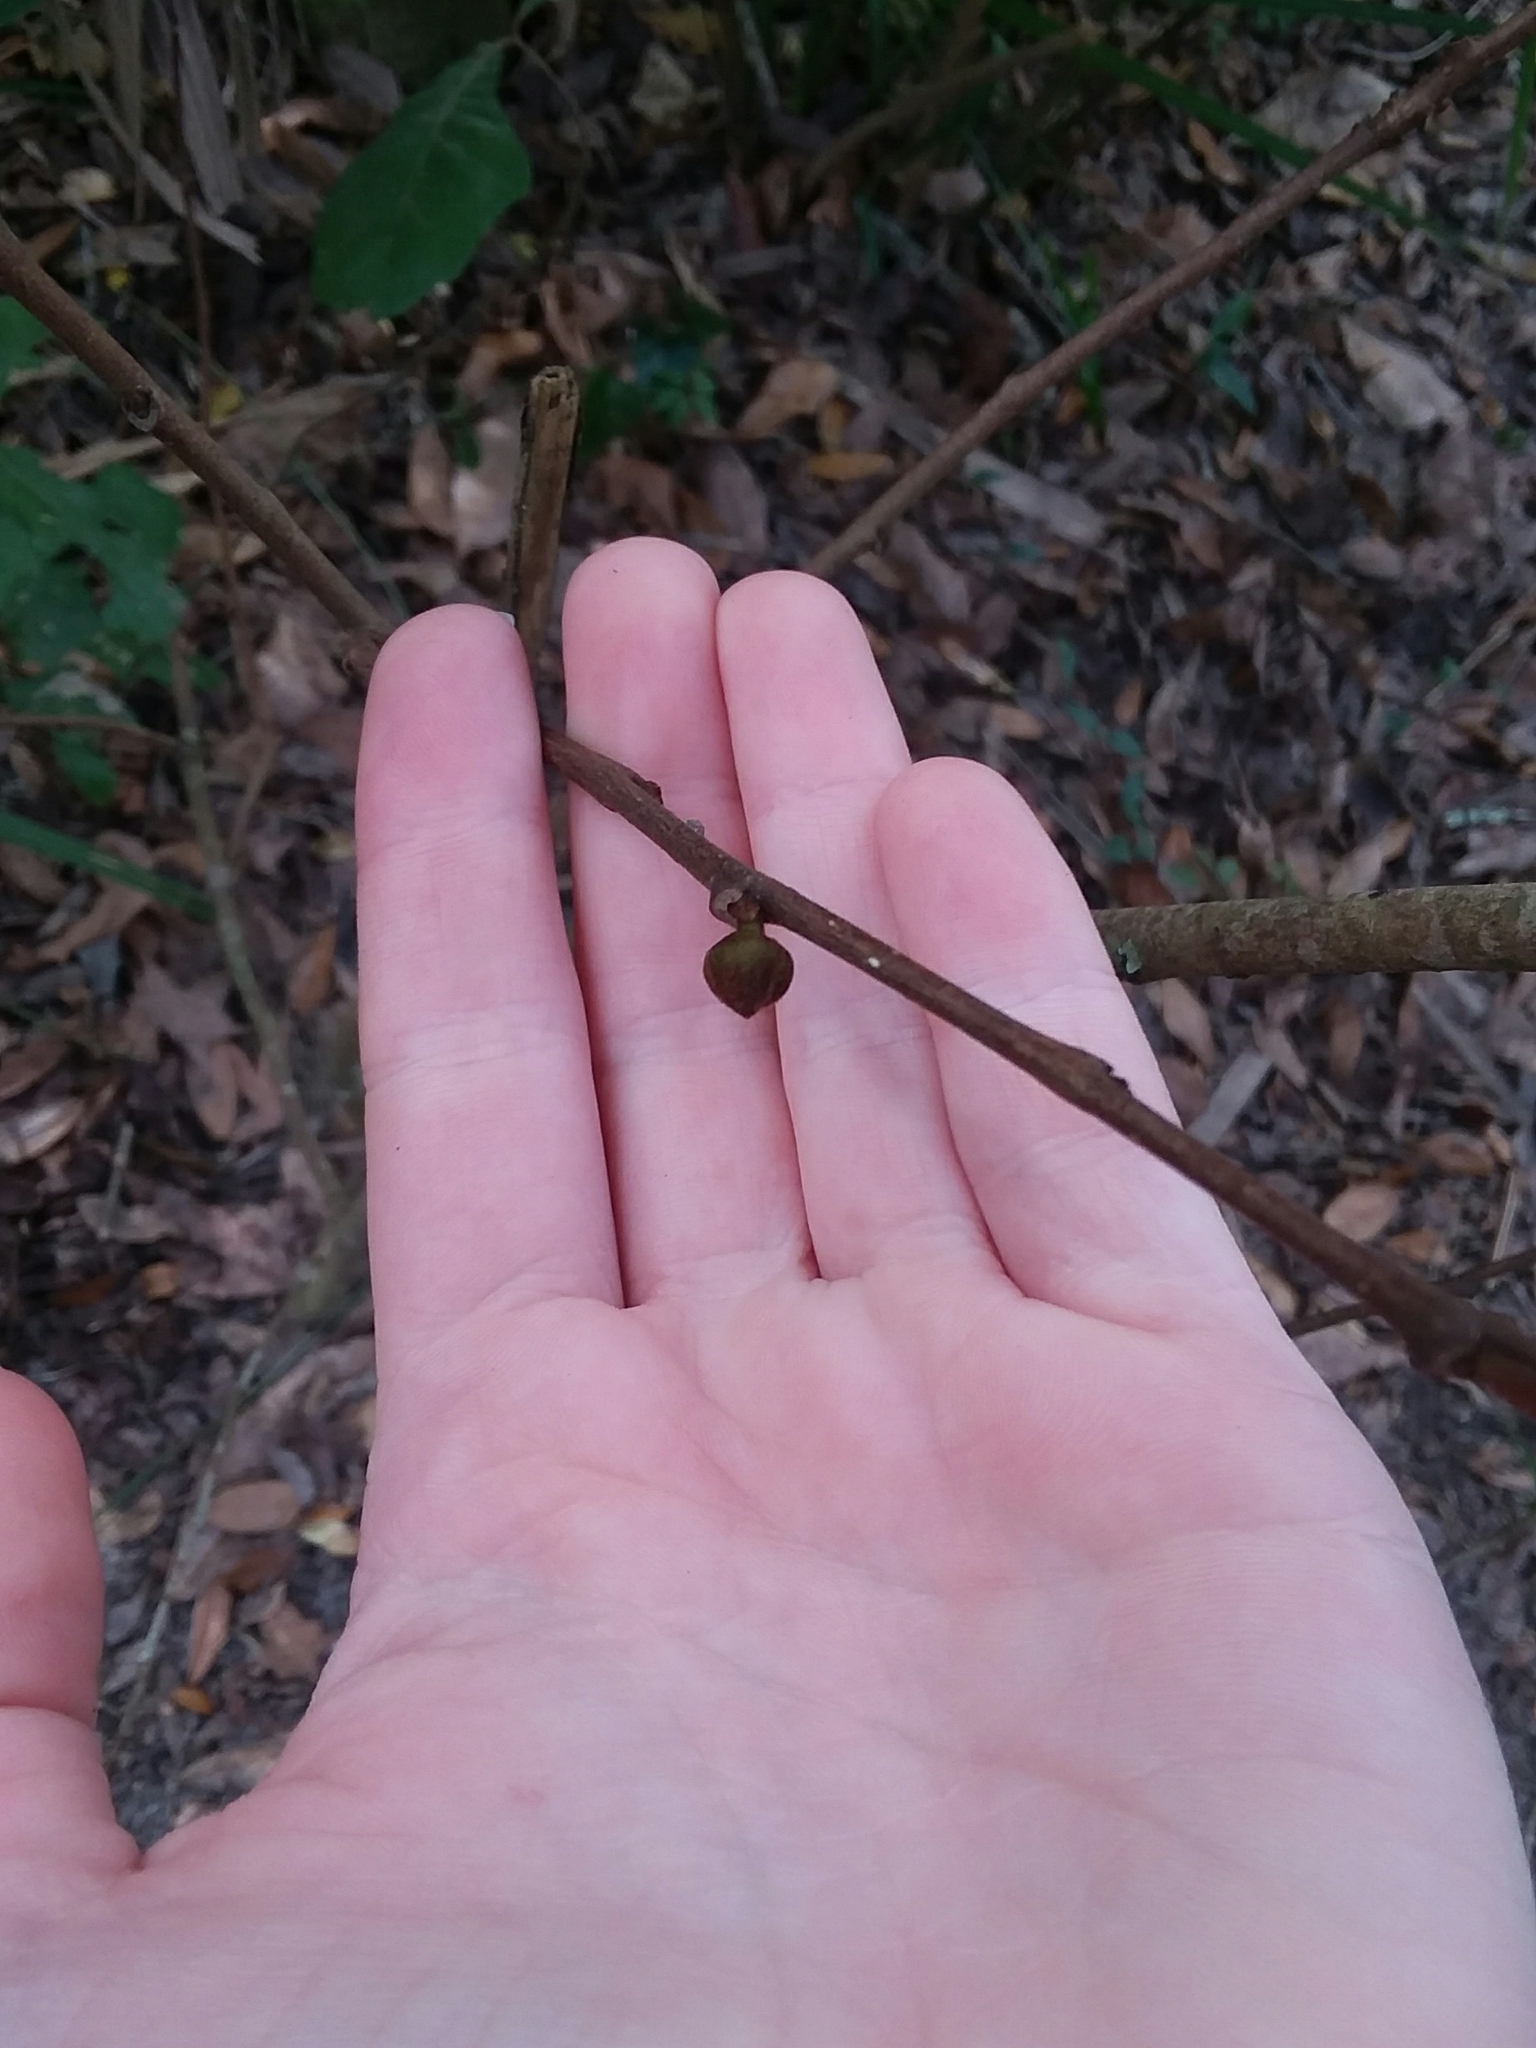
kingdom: Plantae
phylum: Tracheophyta
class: Magnoliopsida
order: Magnoliales
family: Annonaceae
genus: Asimina
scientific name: Asimina parviflora
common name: Dwarf pawpaw
